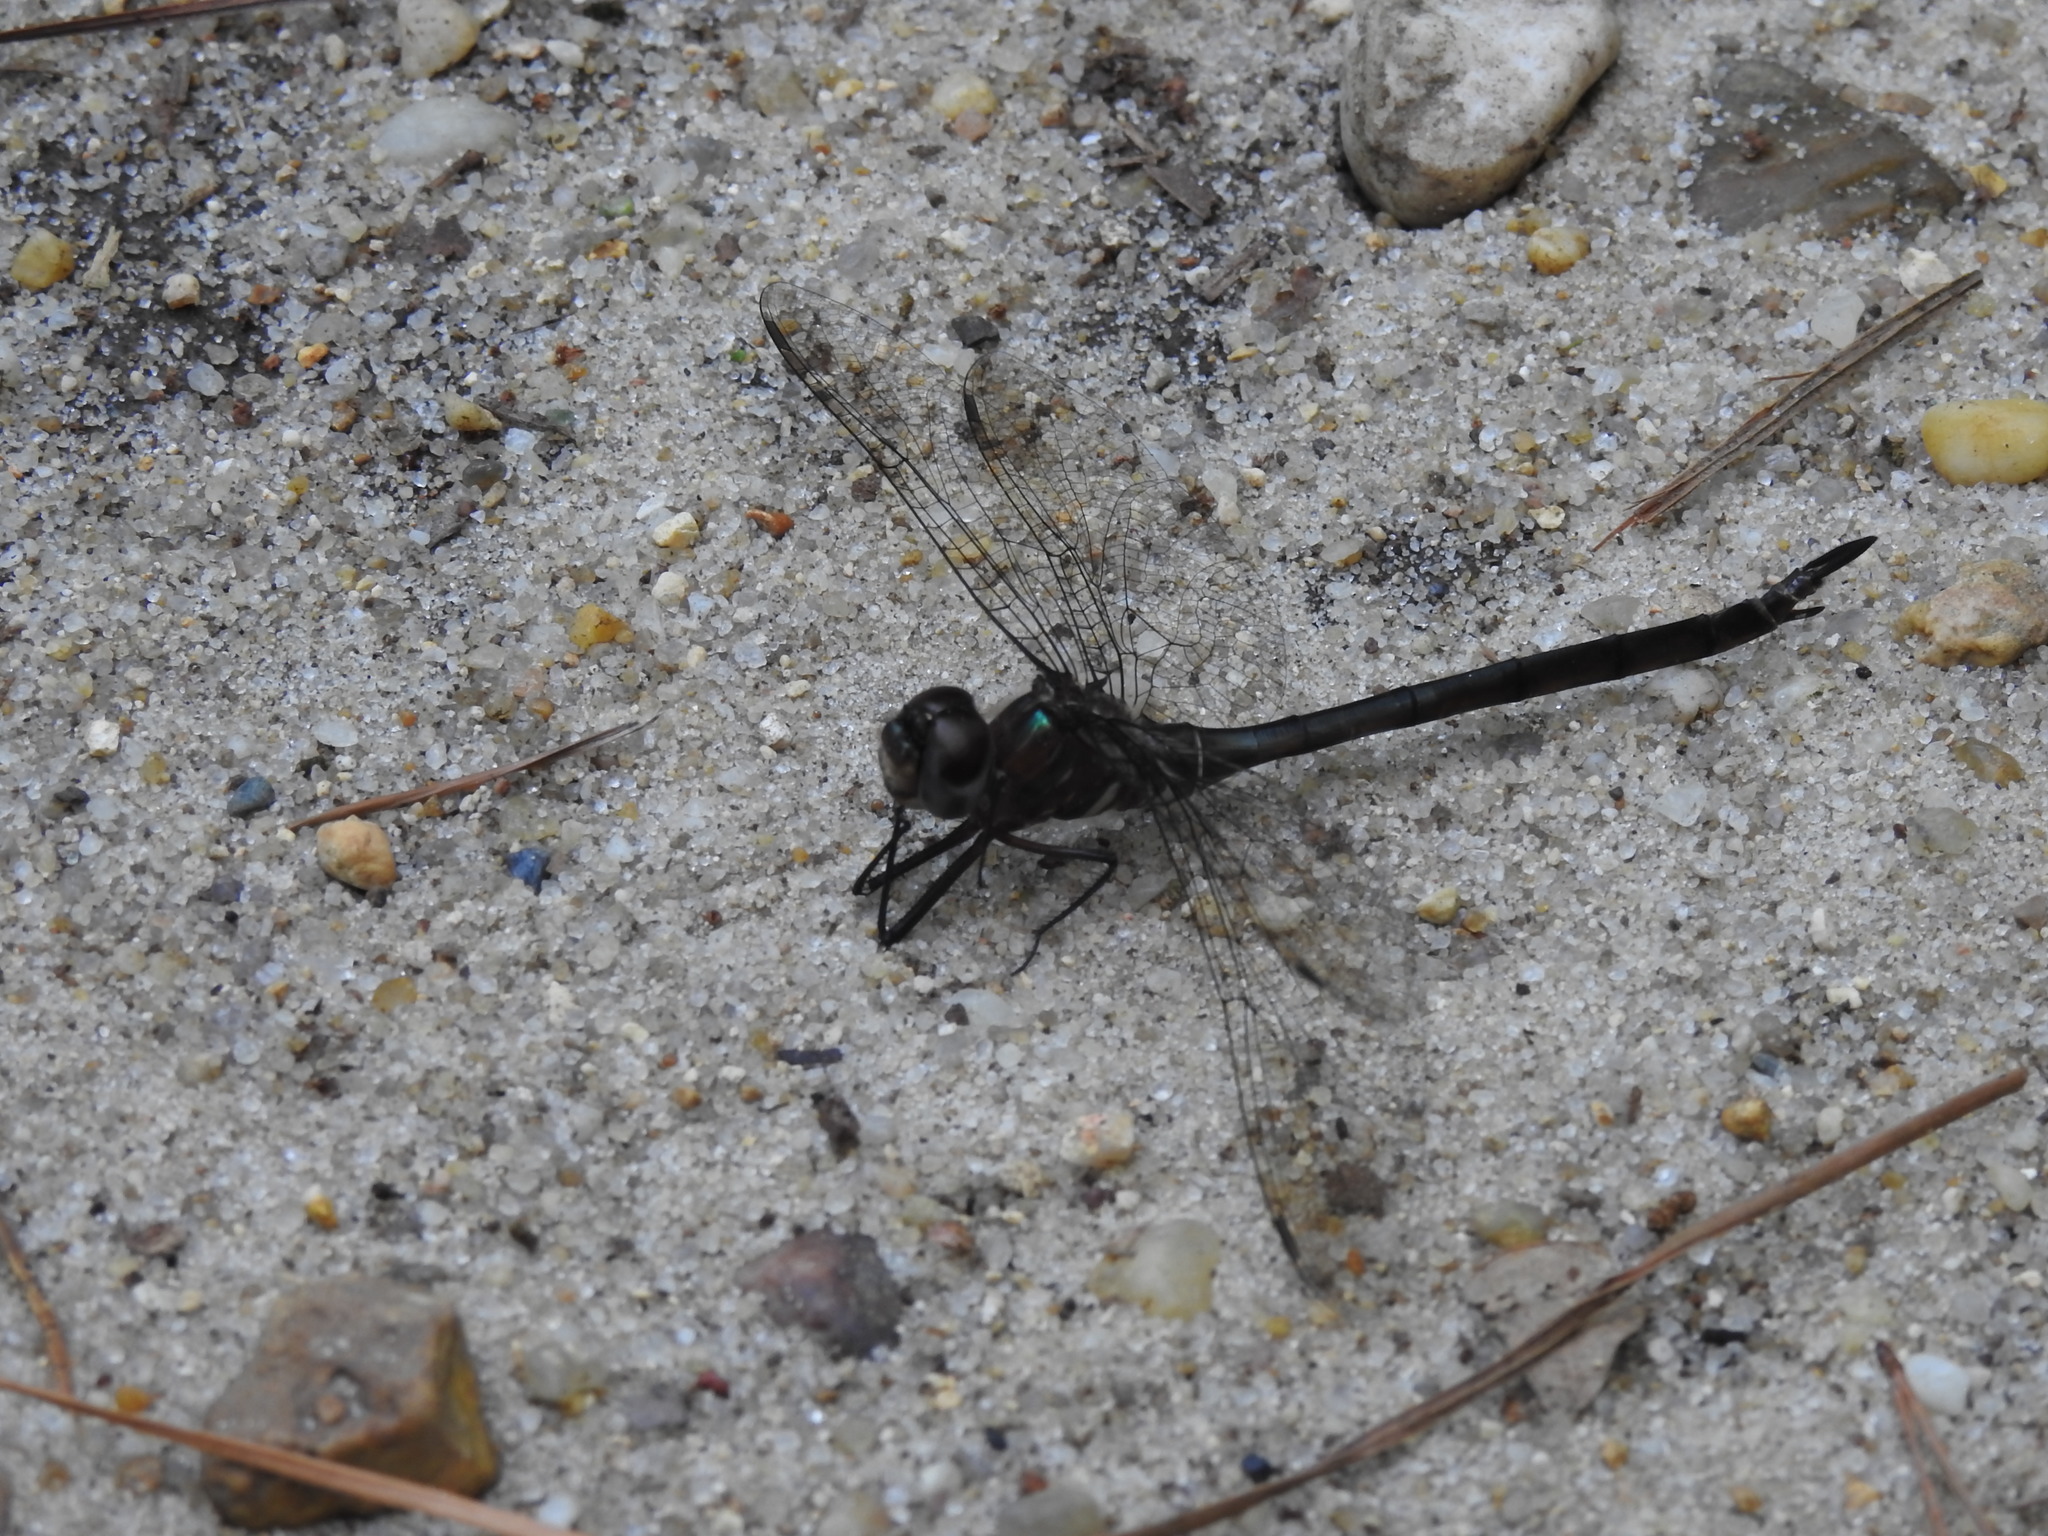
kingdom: Animalia
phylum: Arthropoda
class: Insecta
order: Odonata
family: Corduliidae
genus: Somatochlora
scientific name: Somatochlora filosa
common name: Fine-lined emerald
